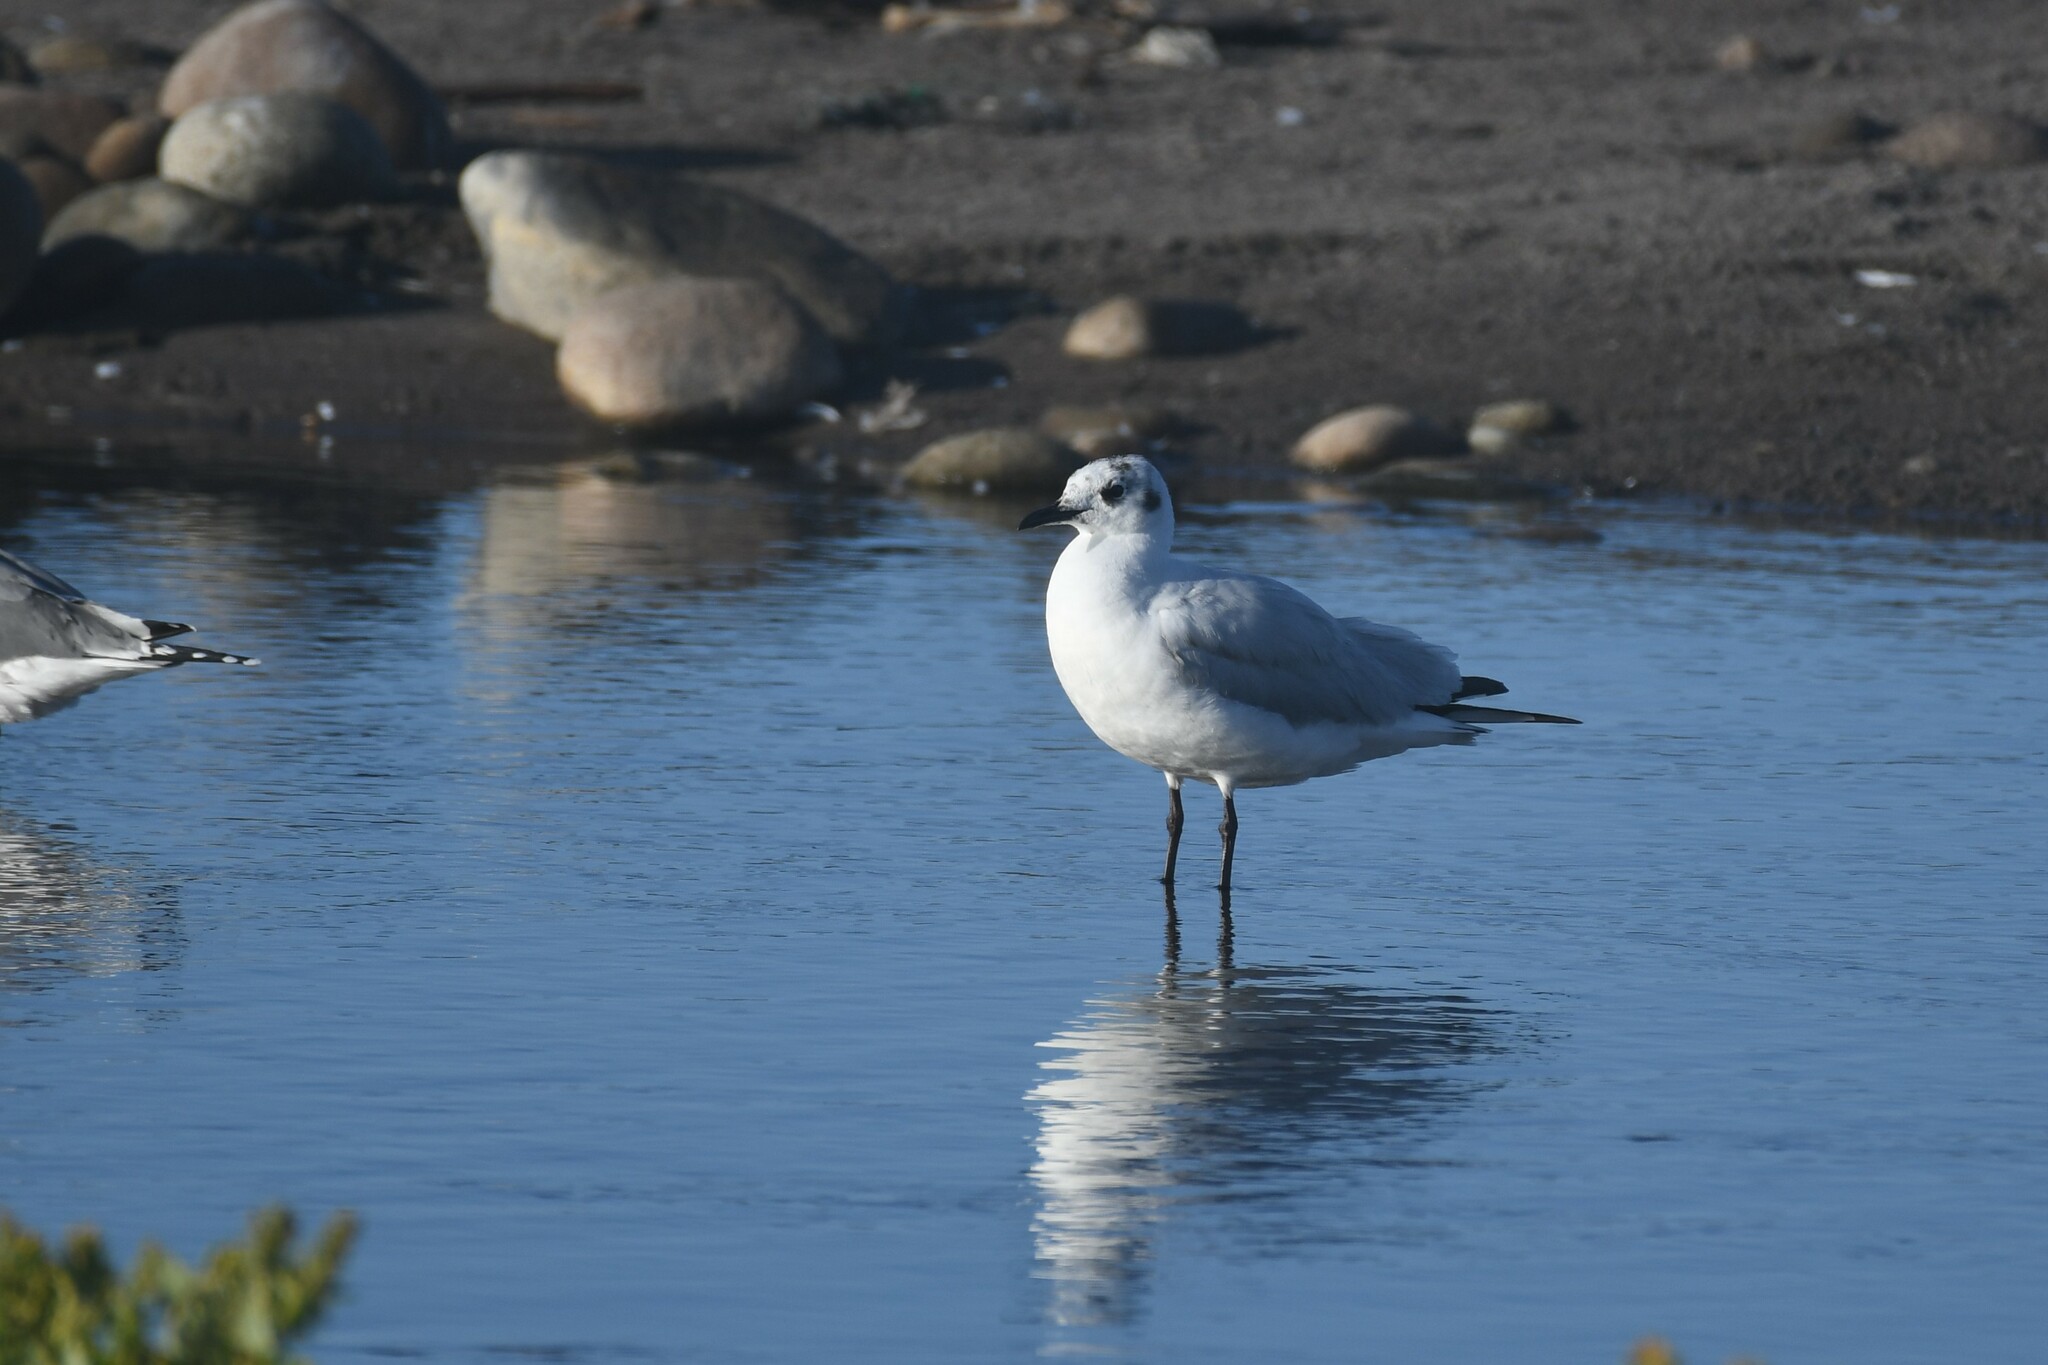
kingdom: Animalia
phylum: Chordata
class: Aves
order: Charadriiformes
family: Laridae
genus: Chroicocephalus
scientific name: Chroicocephalus serranus
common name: Andean gull
